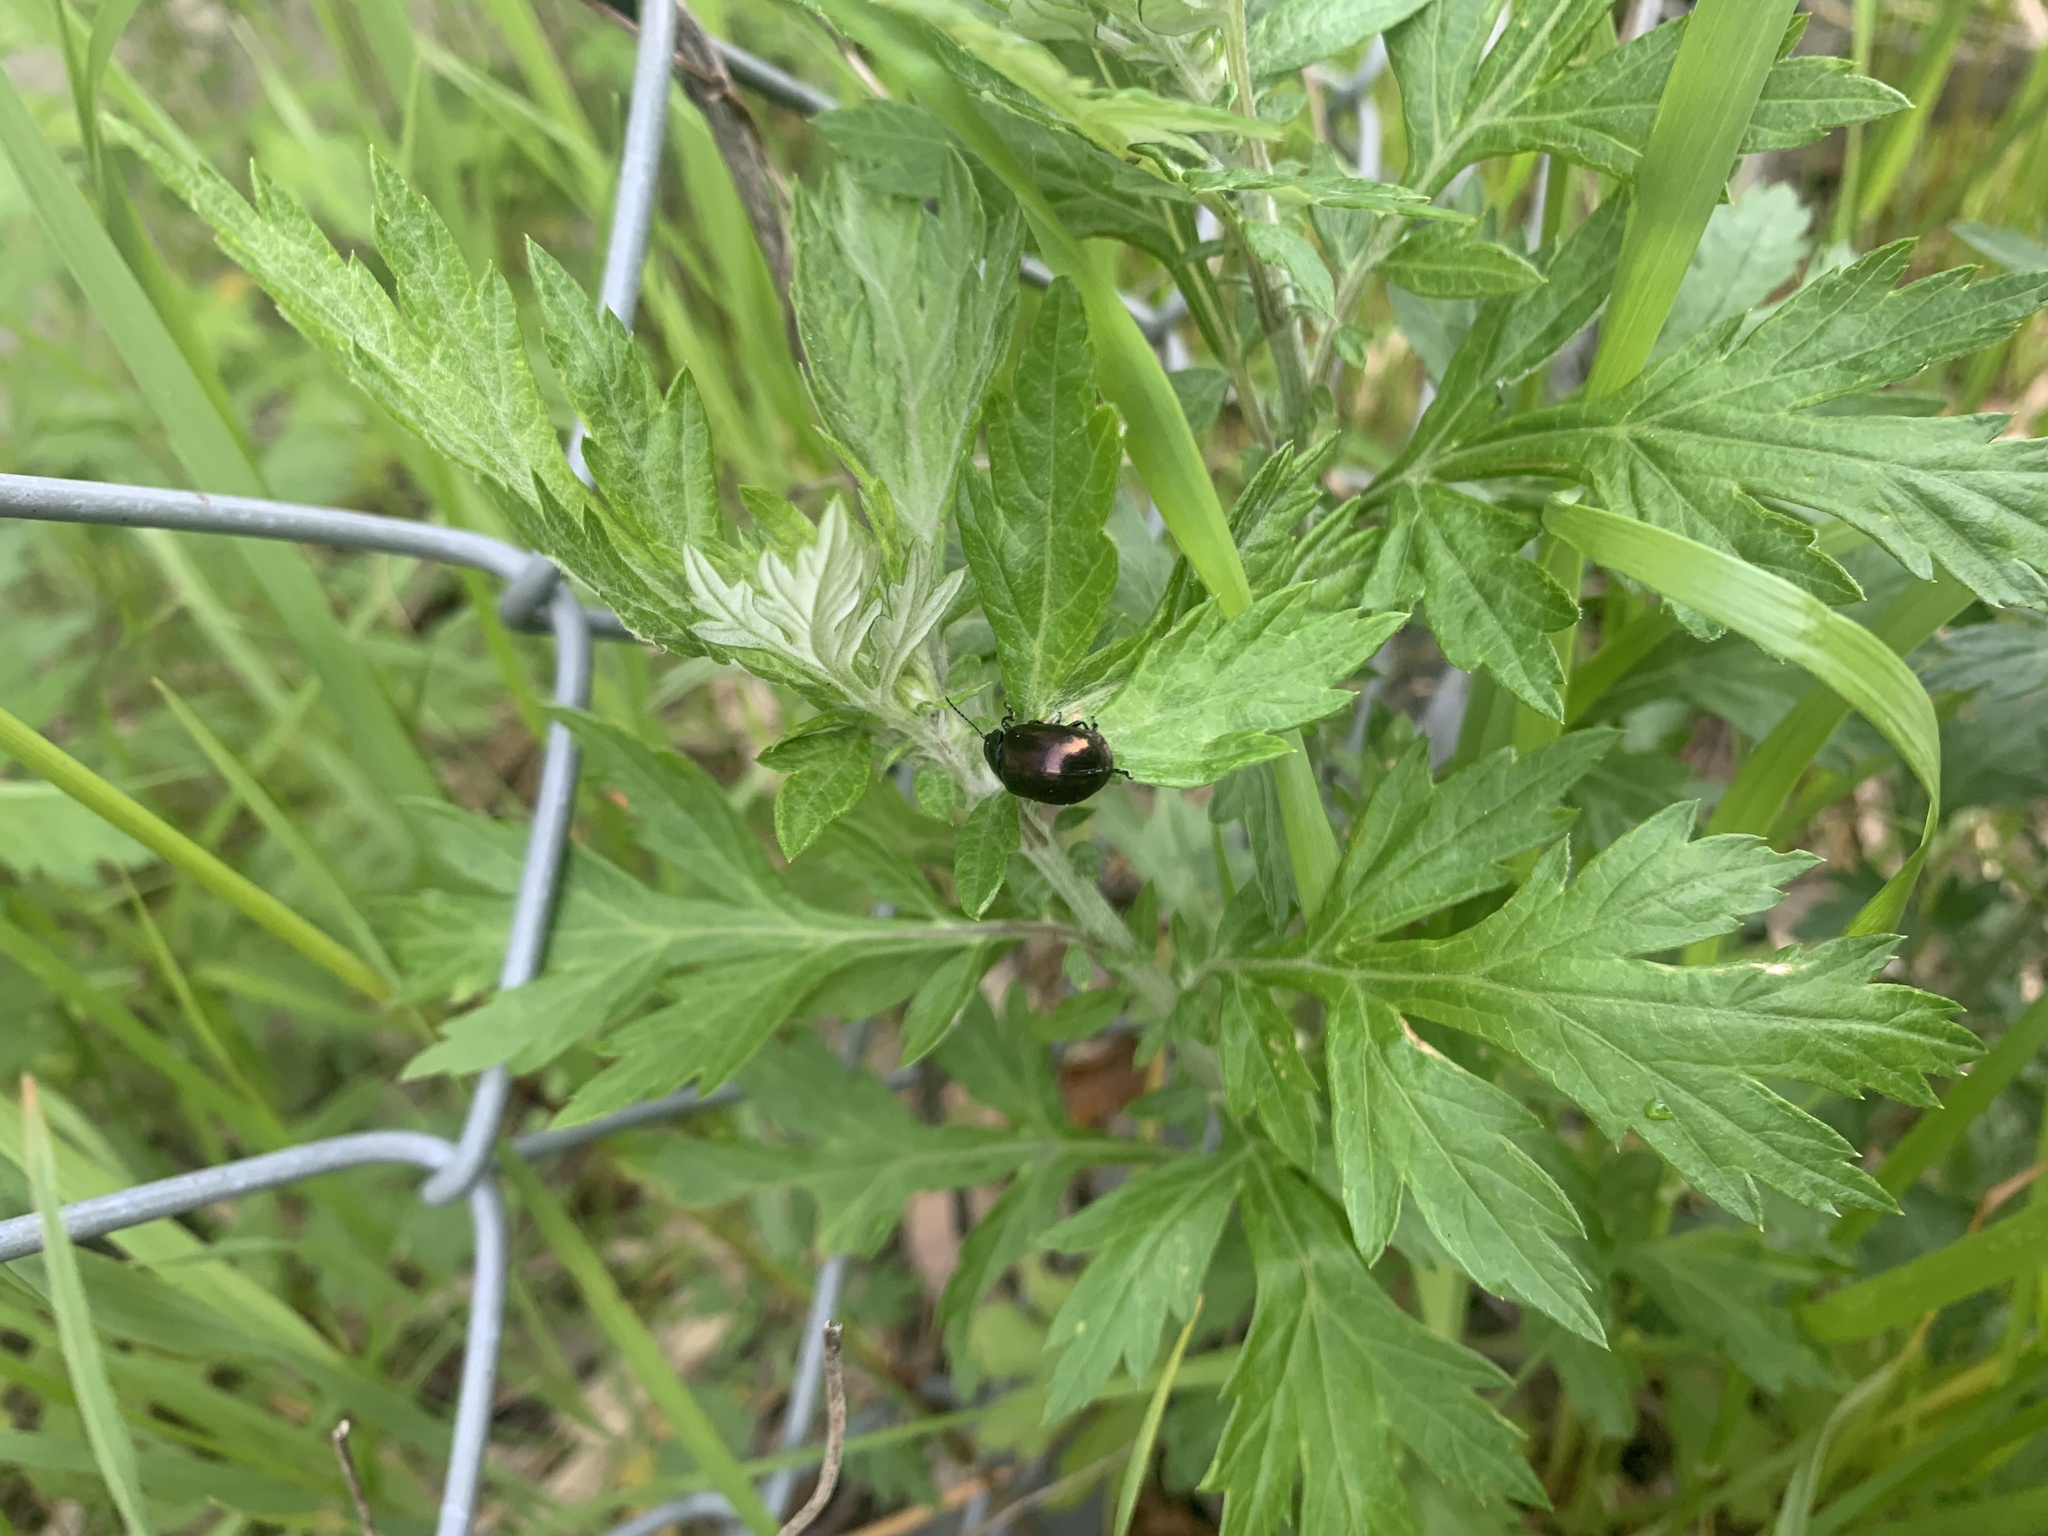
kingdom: Animalia
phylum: Arthropoda
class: Insecta
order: Coleoptera
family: Chrysomelidae
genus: Chrysolina
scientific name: Chrysolina aurichalcea
